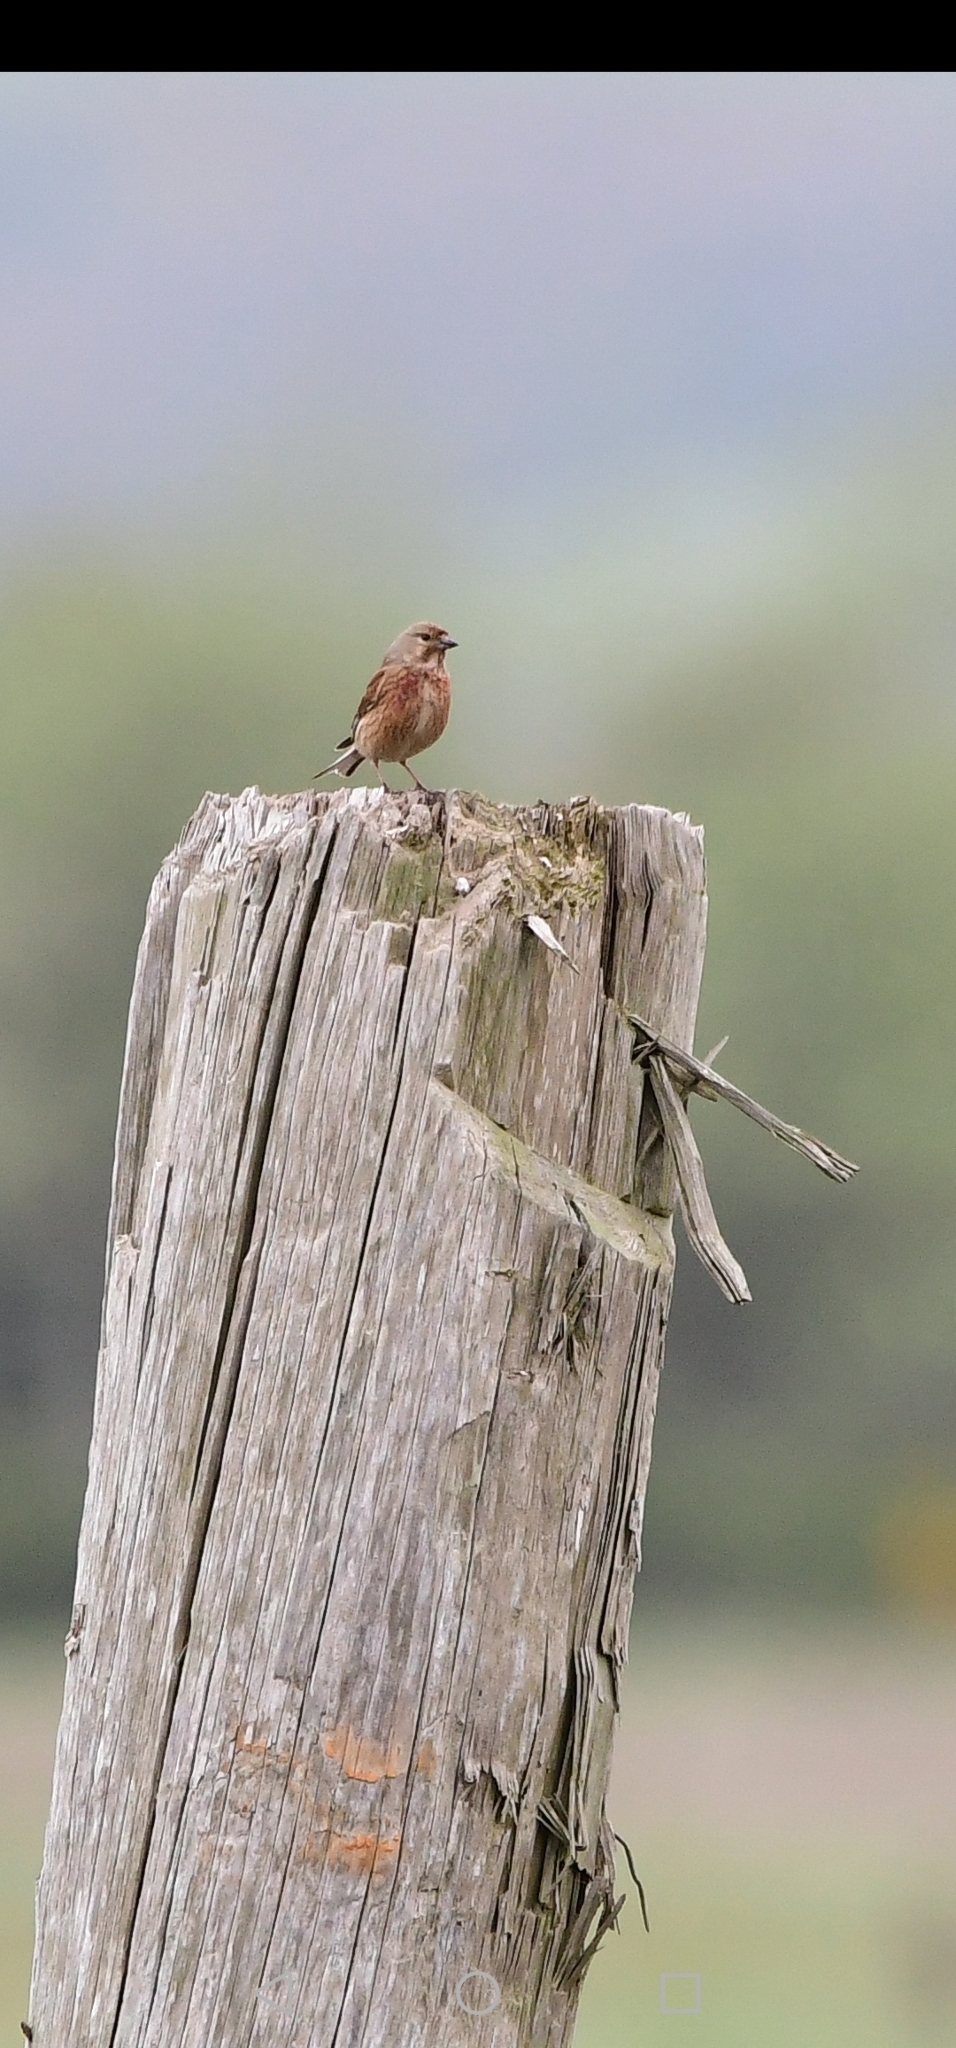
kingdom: Animalia
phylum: Chordata
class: Aves
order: Passeriformes
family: Fringillidae
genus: Linaria
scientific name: Linaria cannabina
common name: Common linnet
